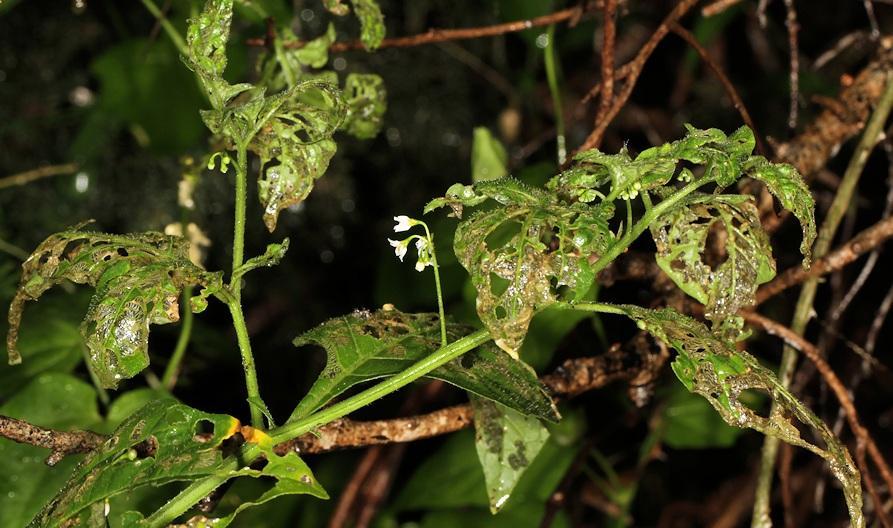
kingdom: Animalia
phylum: Arthropoda
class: Insecta
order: Coleoptera
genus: Solanophila
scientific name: Solanophila
